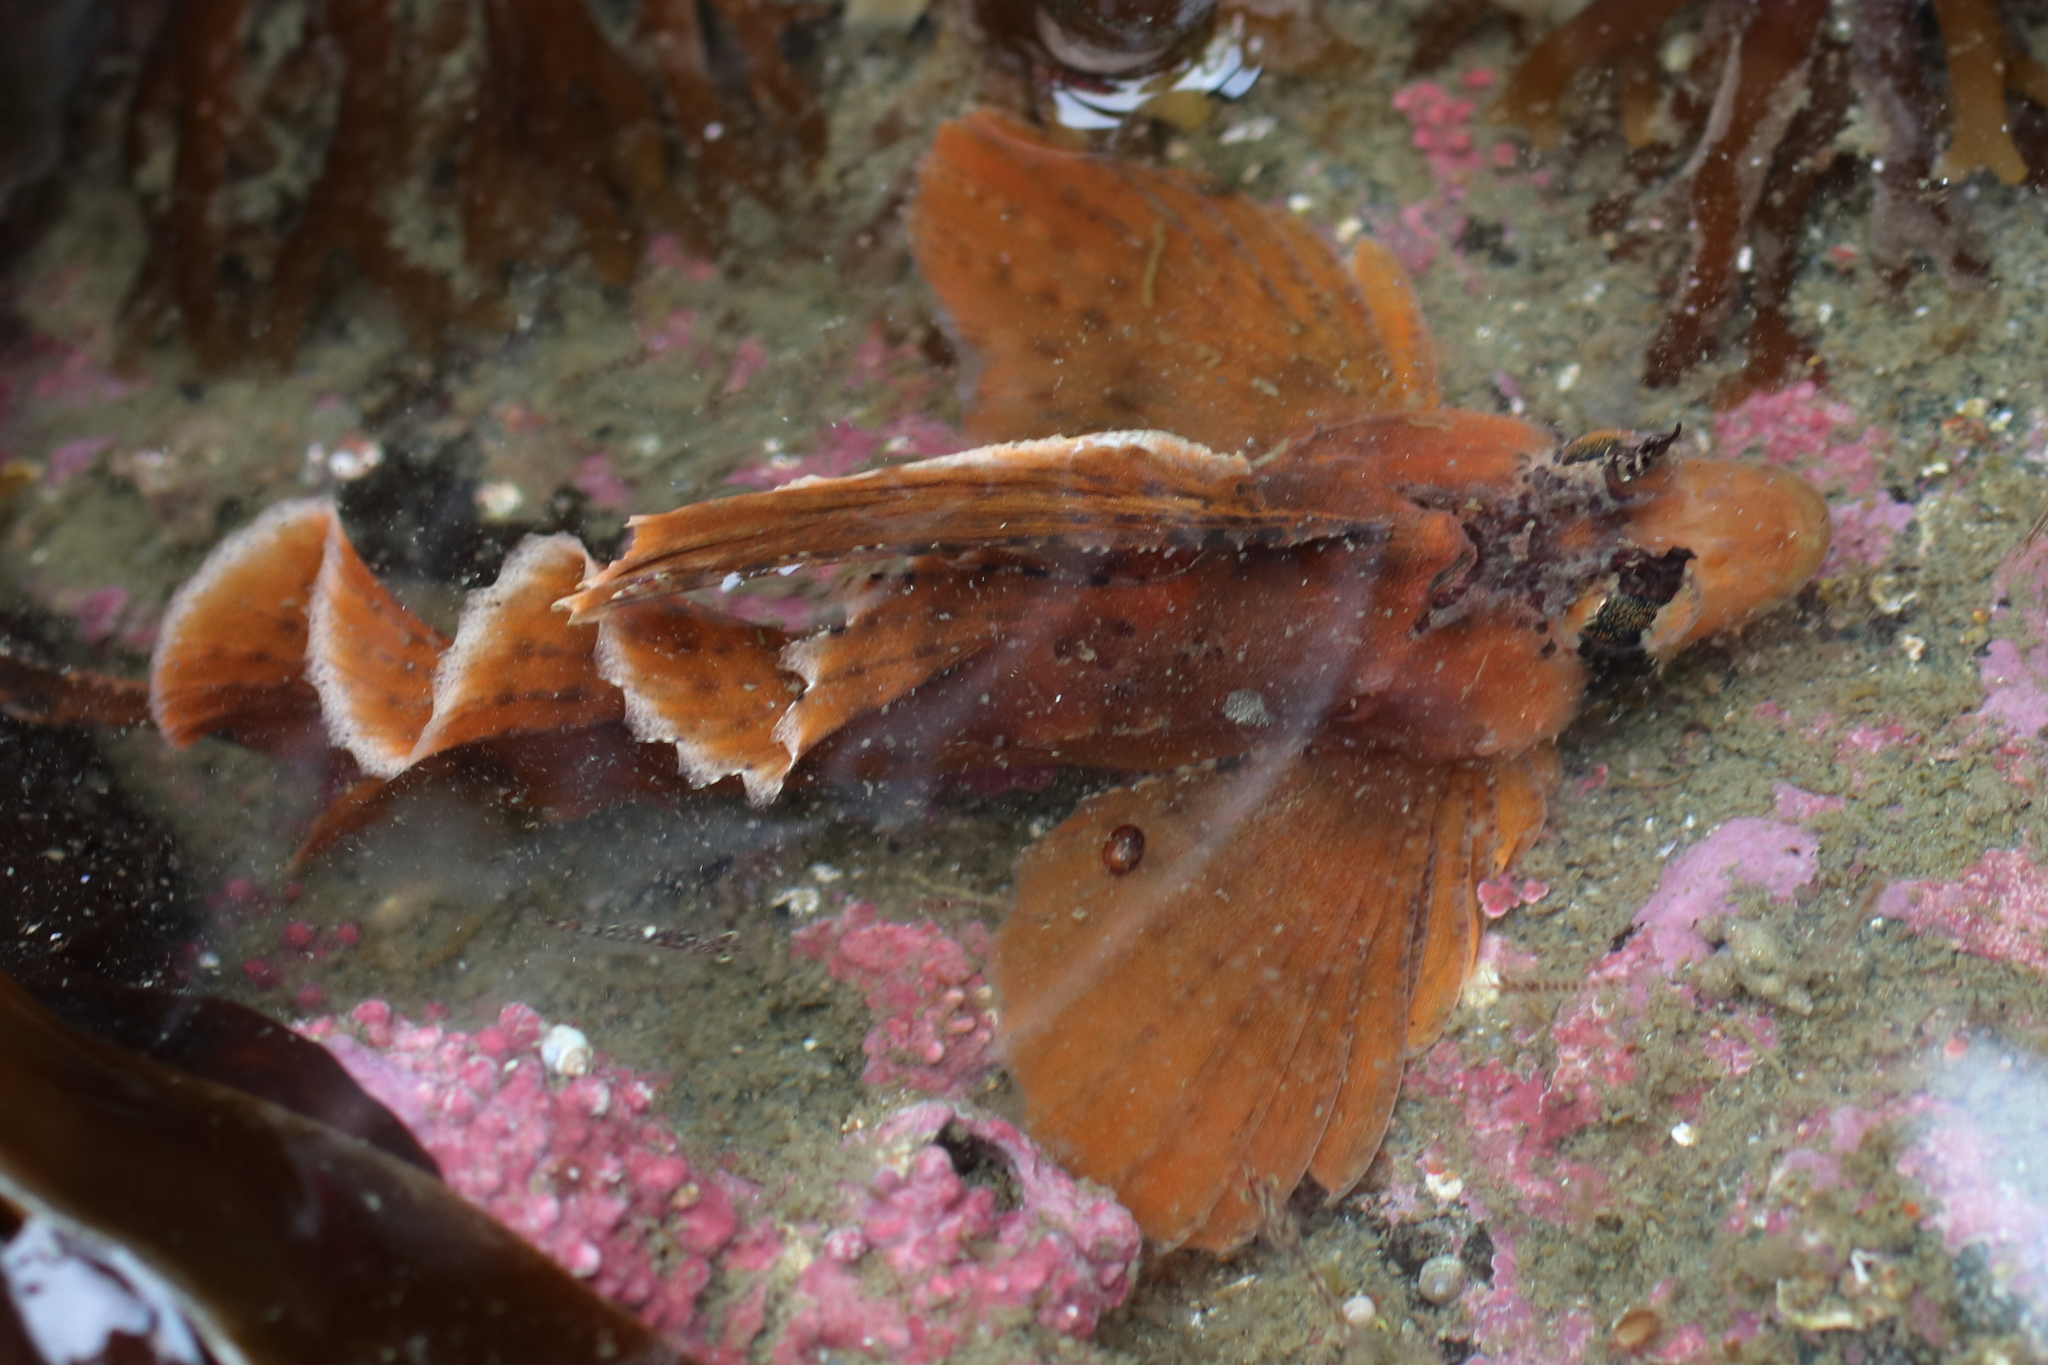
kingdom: Animalia
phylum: Chordata
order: Scorpaeniformes
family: Hemitripteridae
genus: Nautichthys
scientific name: Nautichthys oculofasciatus
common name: Sailfin sculpin
